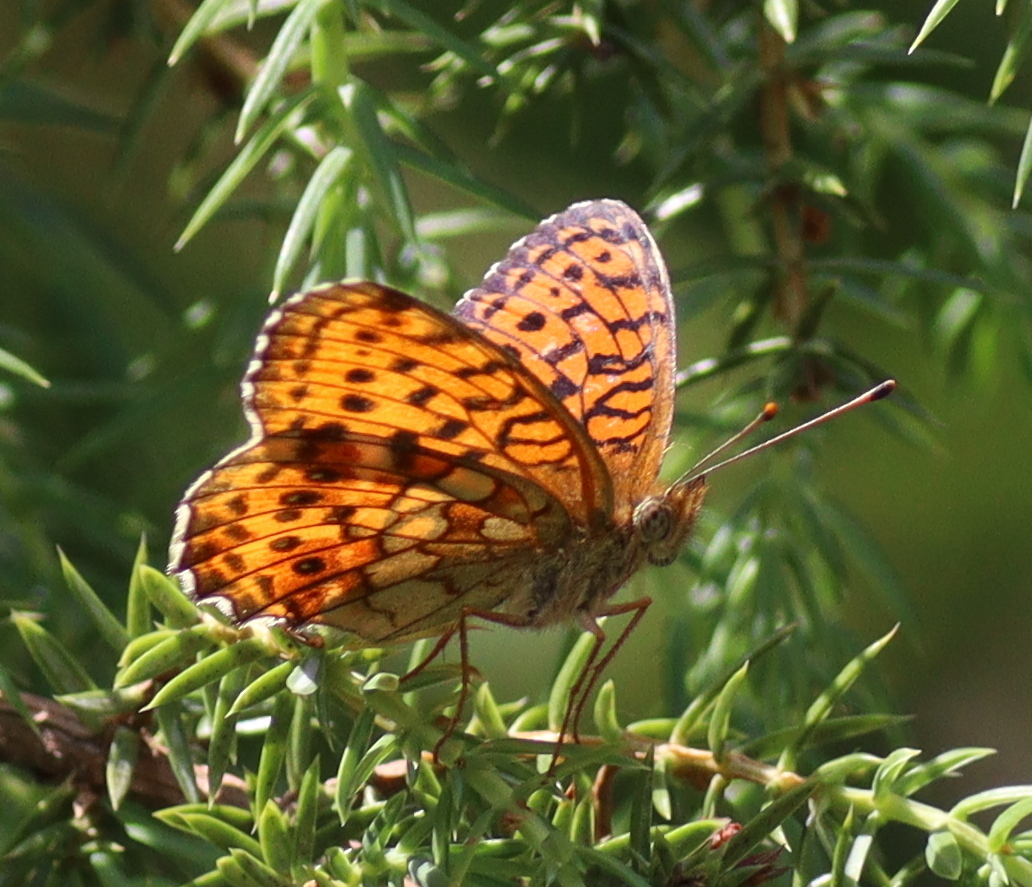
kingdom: Animalia
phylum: Arthropoda
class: Insecta
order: Lepidoptera
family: Nymphalidae
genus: Brenthis
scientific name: Brenthis ino
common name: Lesser marbled fritillary
